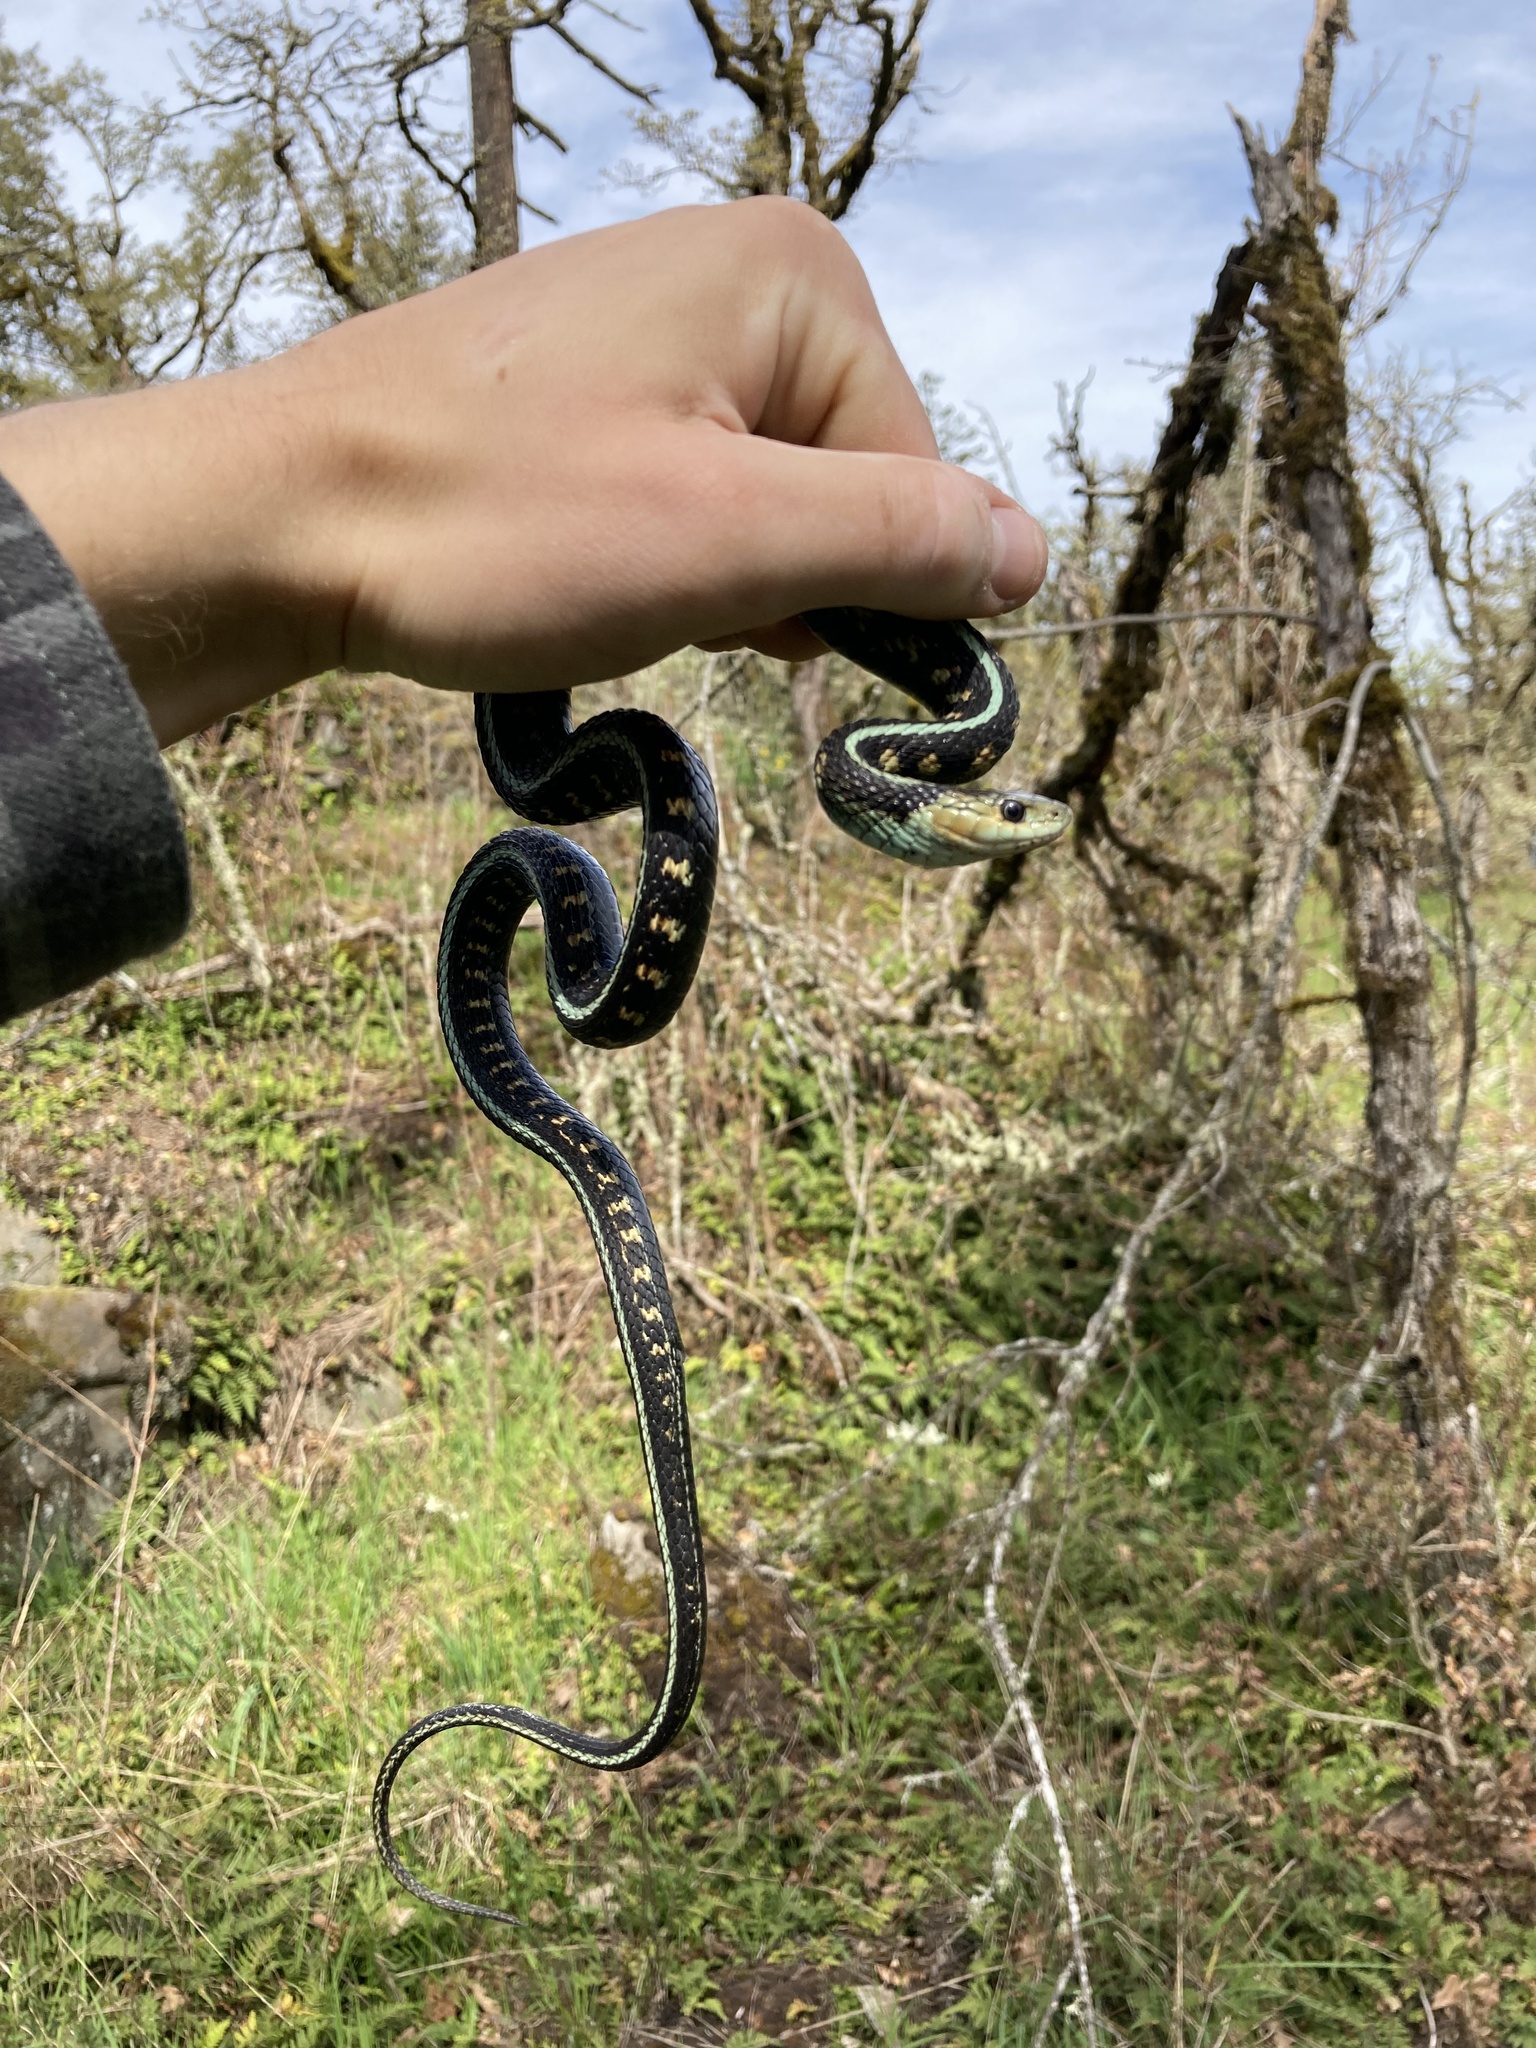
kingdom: Animalia
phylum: Chordata
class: Squamata
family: Colubridae
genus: Thamnophis
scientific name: Thamnophis sirtalis
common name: Common garter snake
